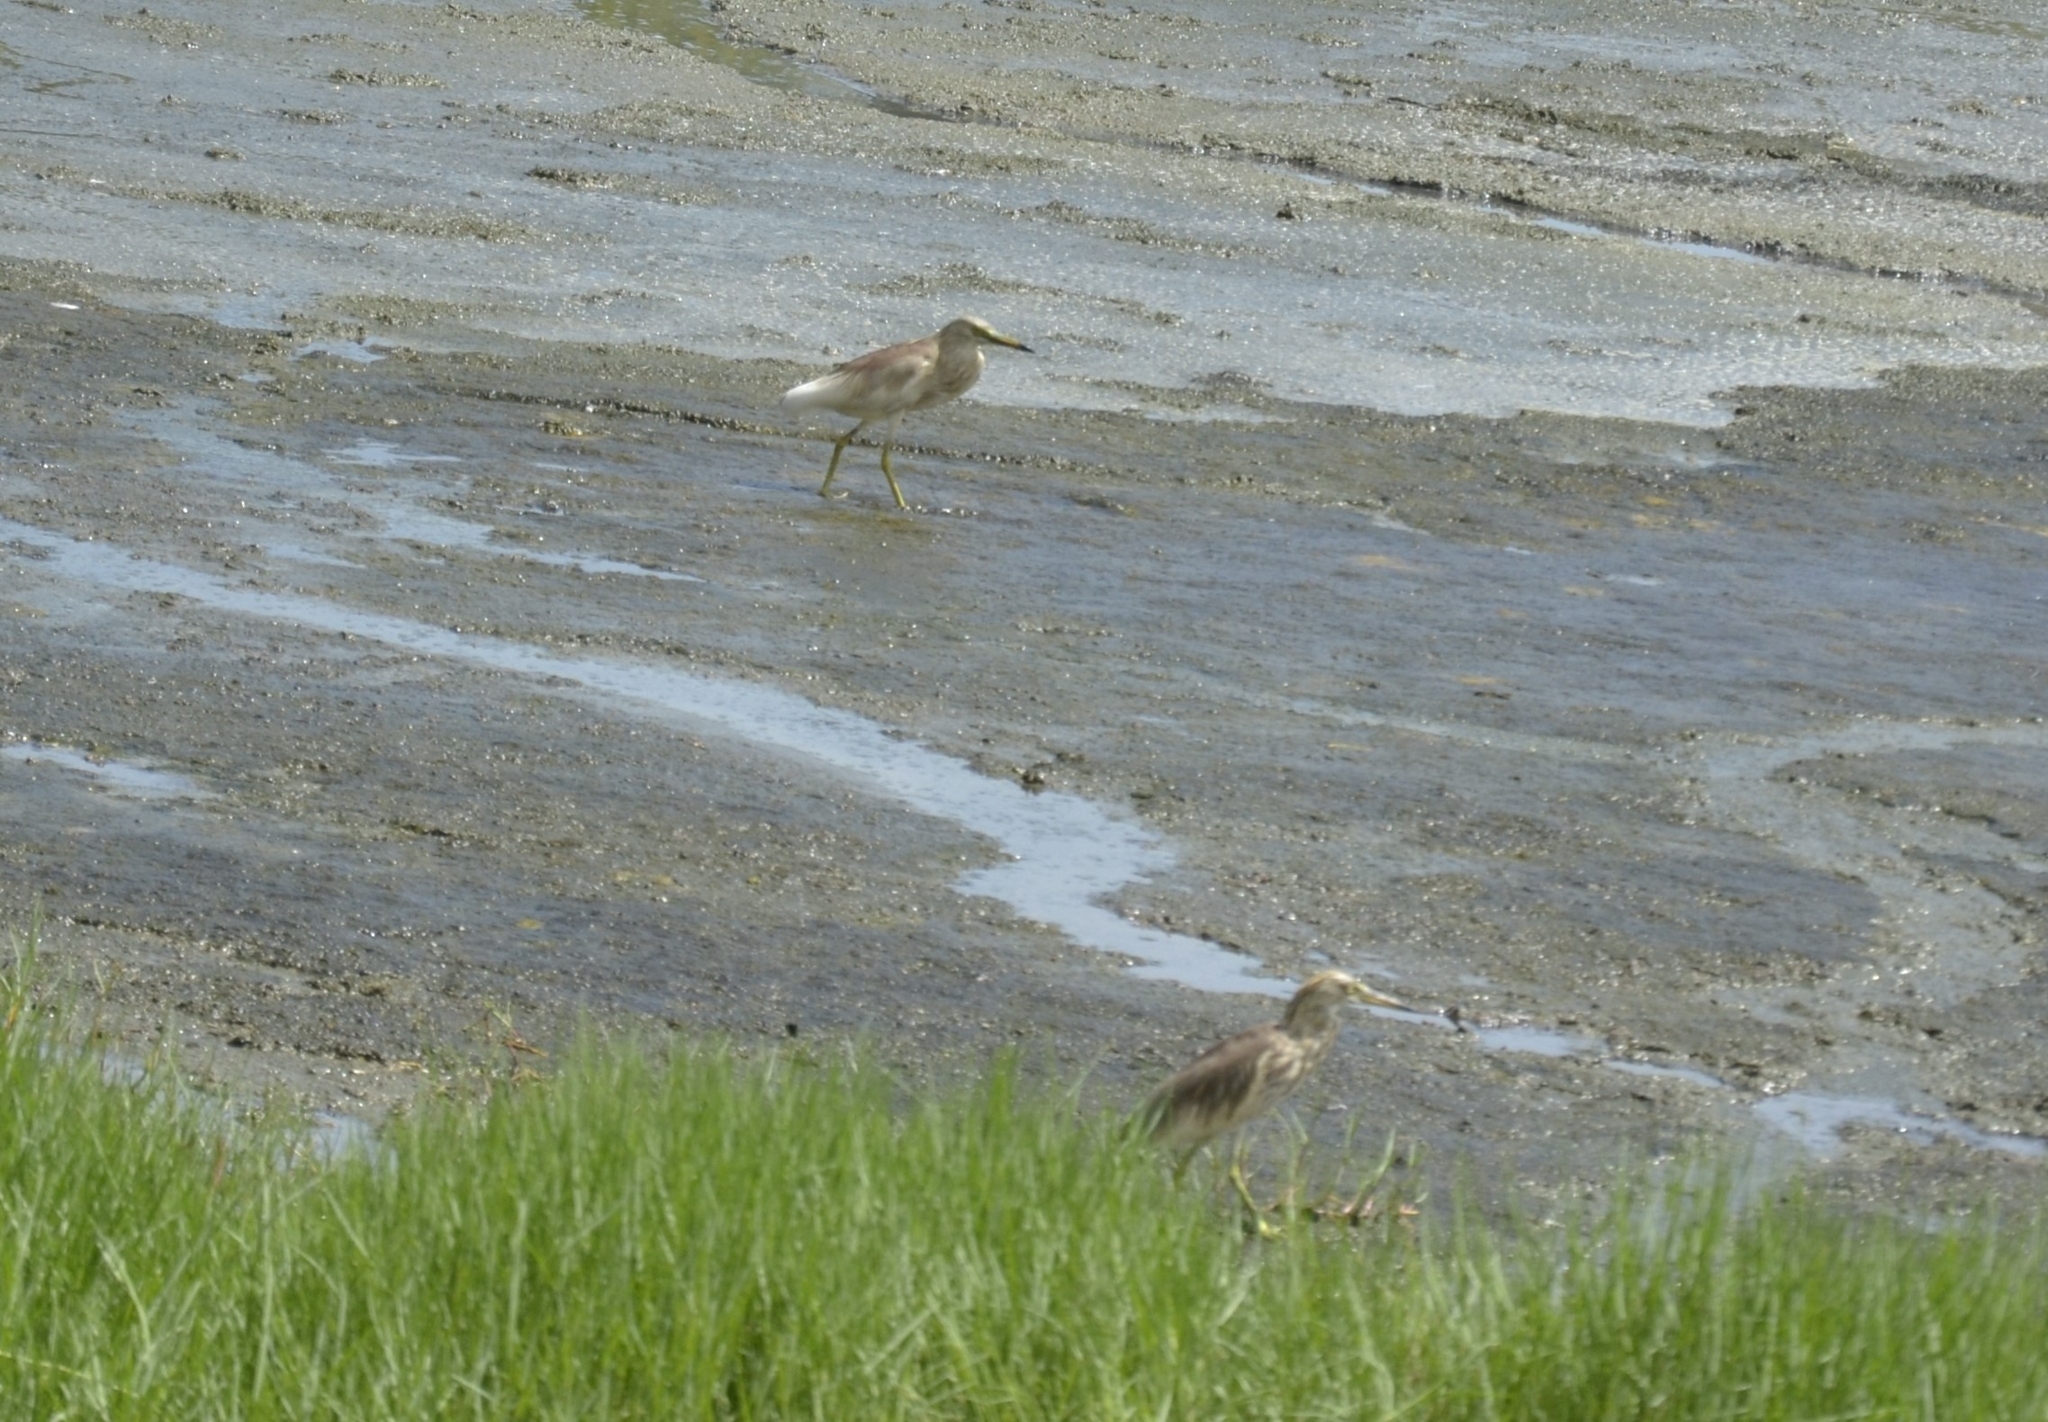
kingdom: Animalia
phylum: Chordata
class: Aves
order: Pelecaniformes
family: Ardeidae
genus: Ardeola
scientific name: Ardeola grayii
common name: Indian pond heron
